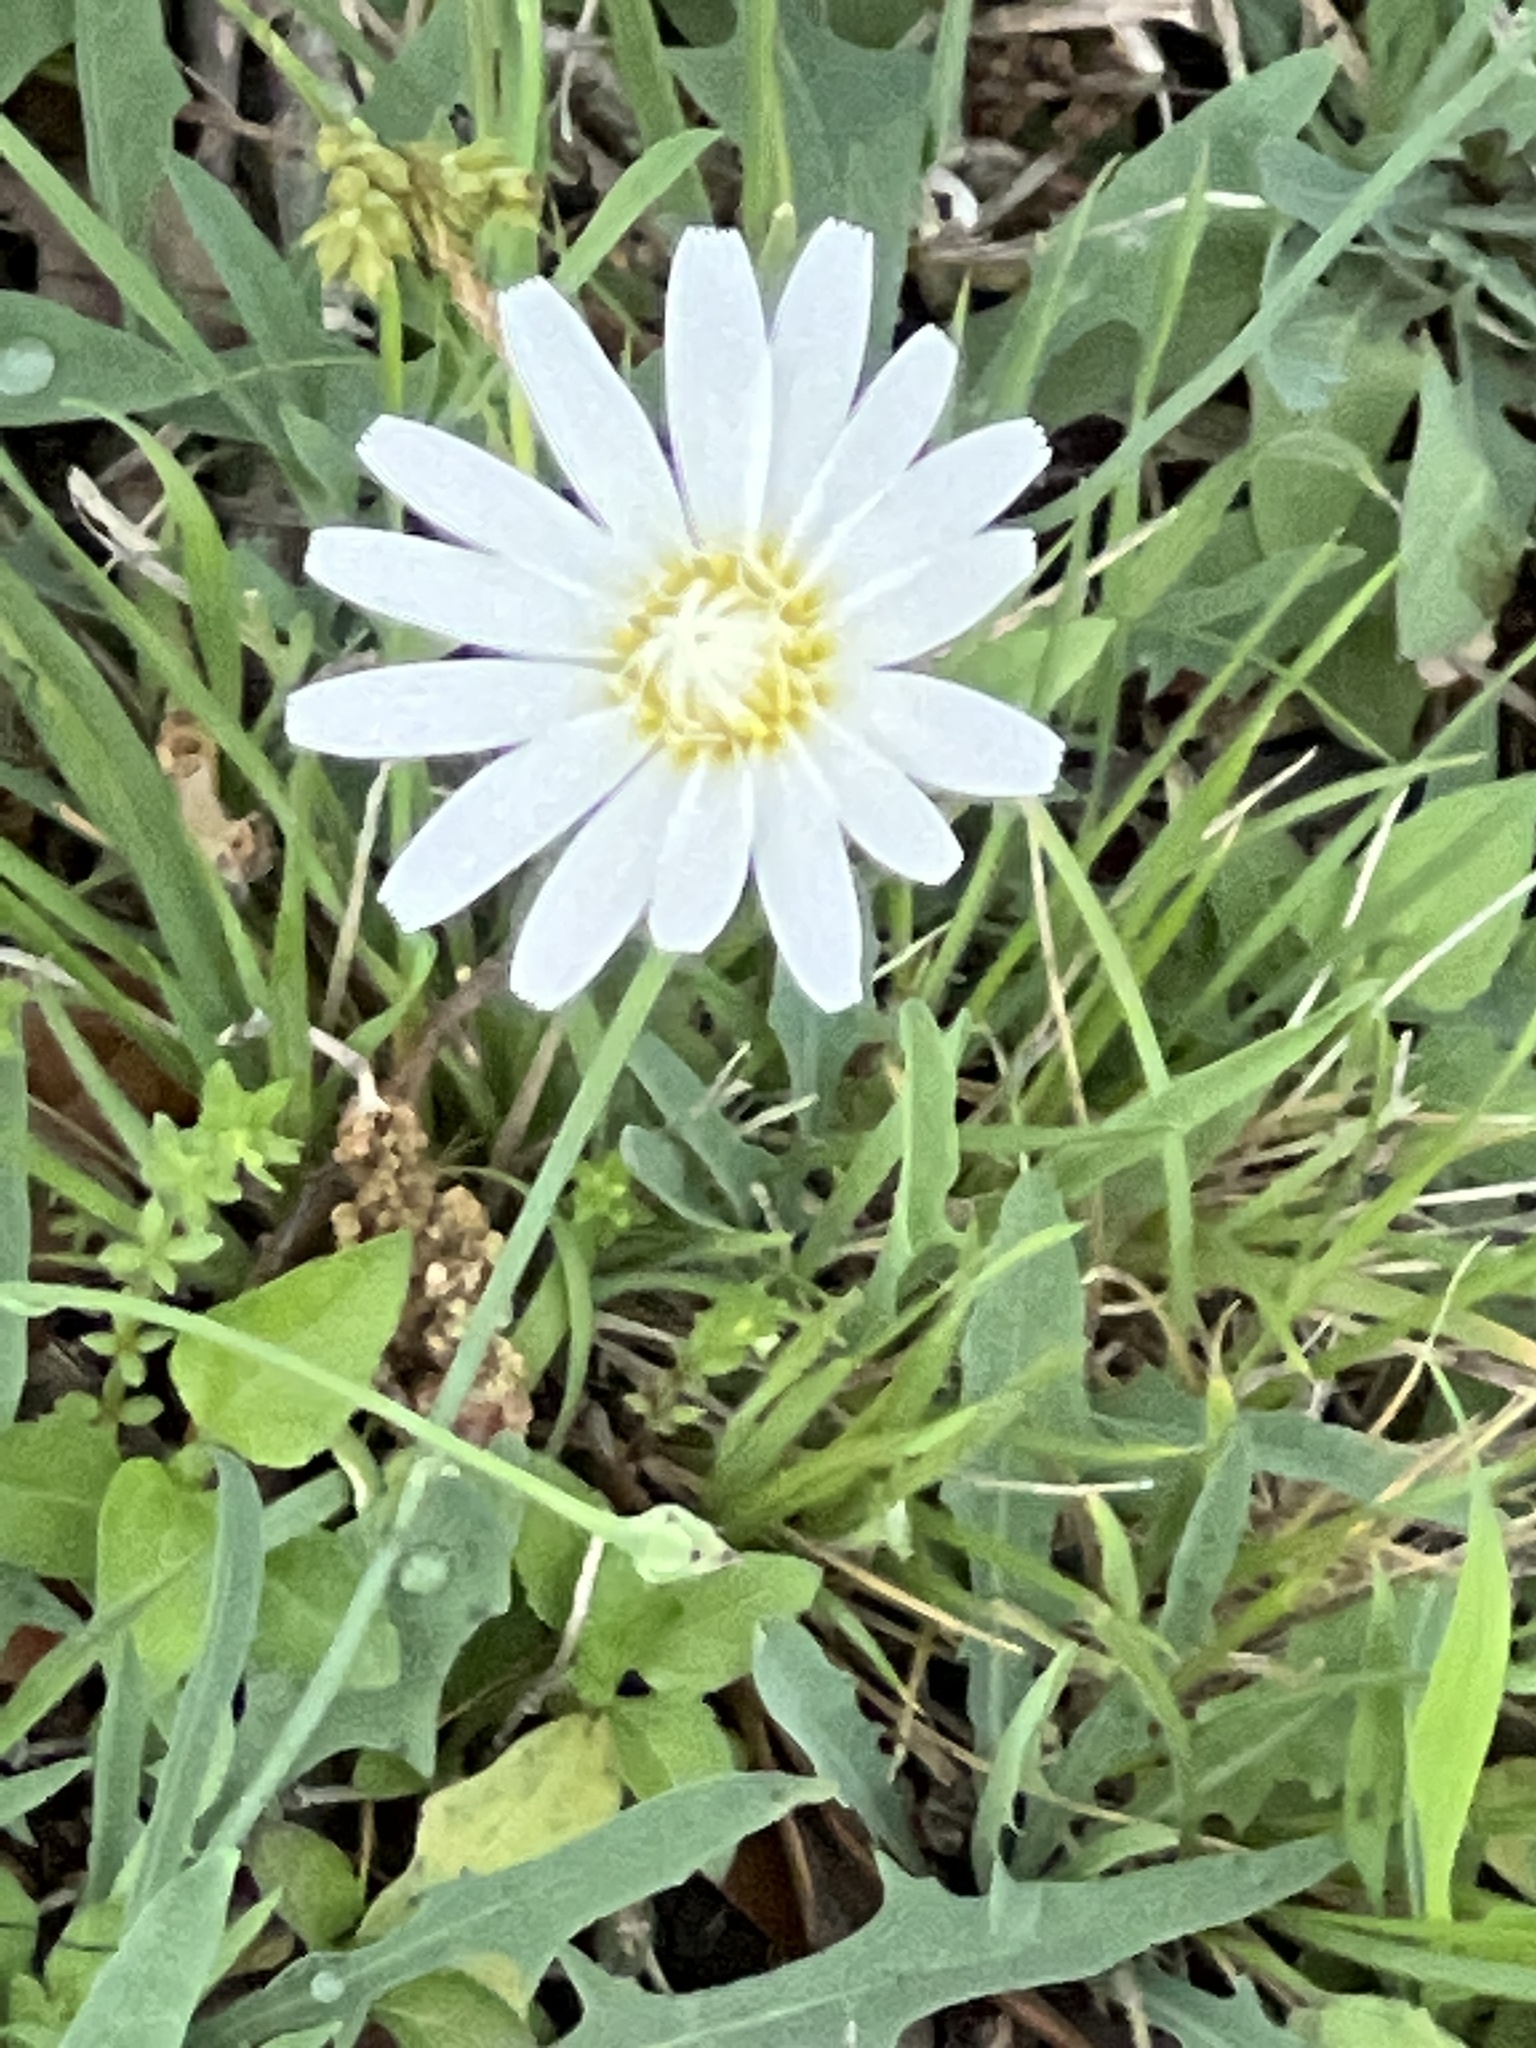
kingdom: Plantae
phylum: Tracheophyta
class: Magnoliopsida
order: Ranunculales
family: Ranunculaceae
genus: Anemone
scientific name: Anemone berlandieri
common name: Ten-petal anemone
